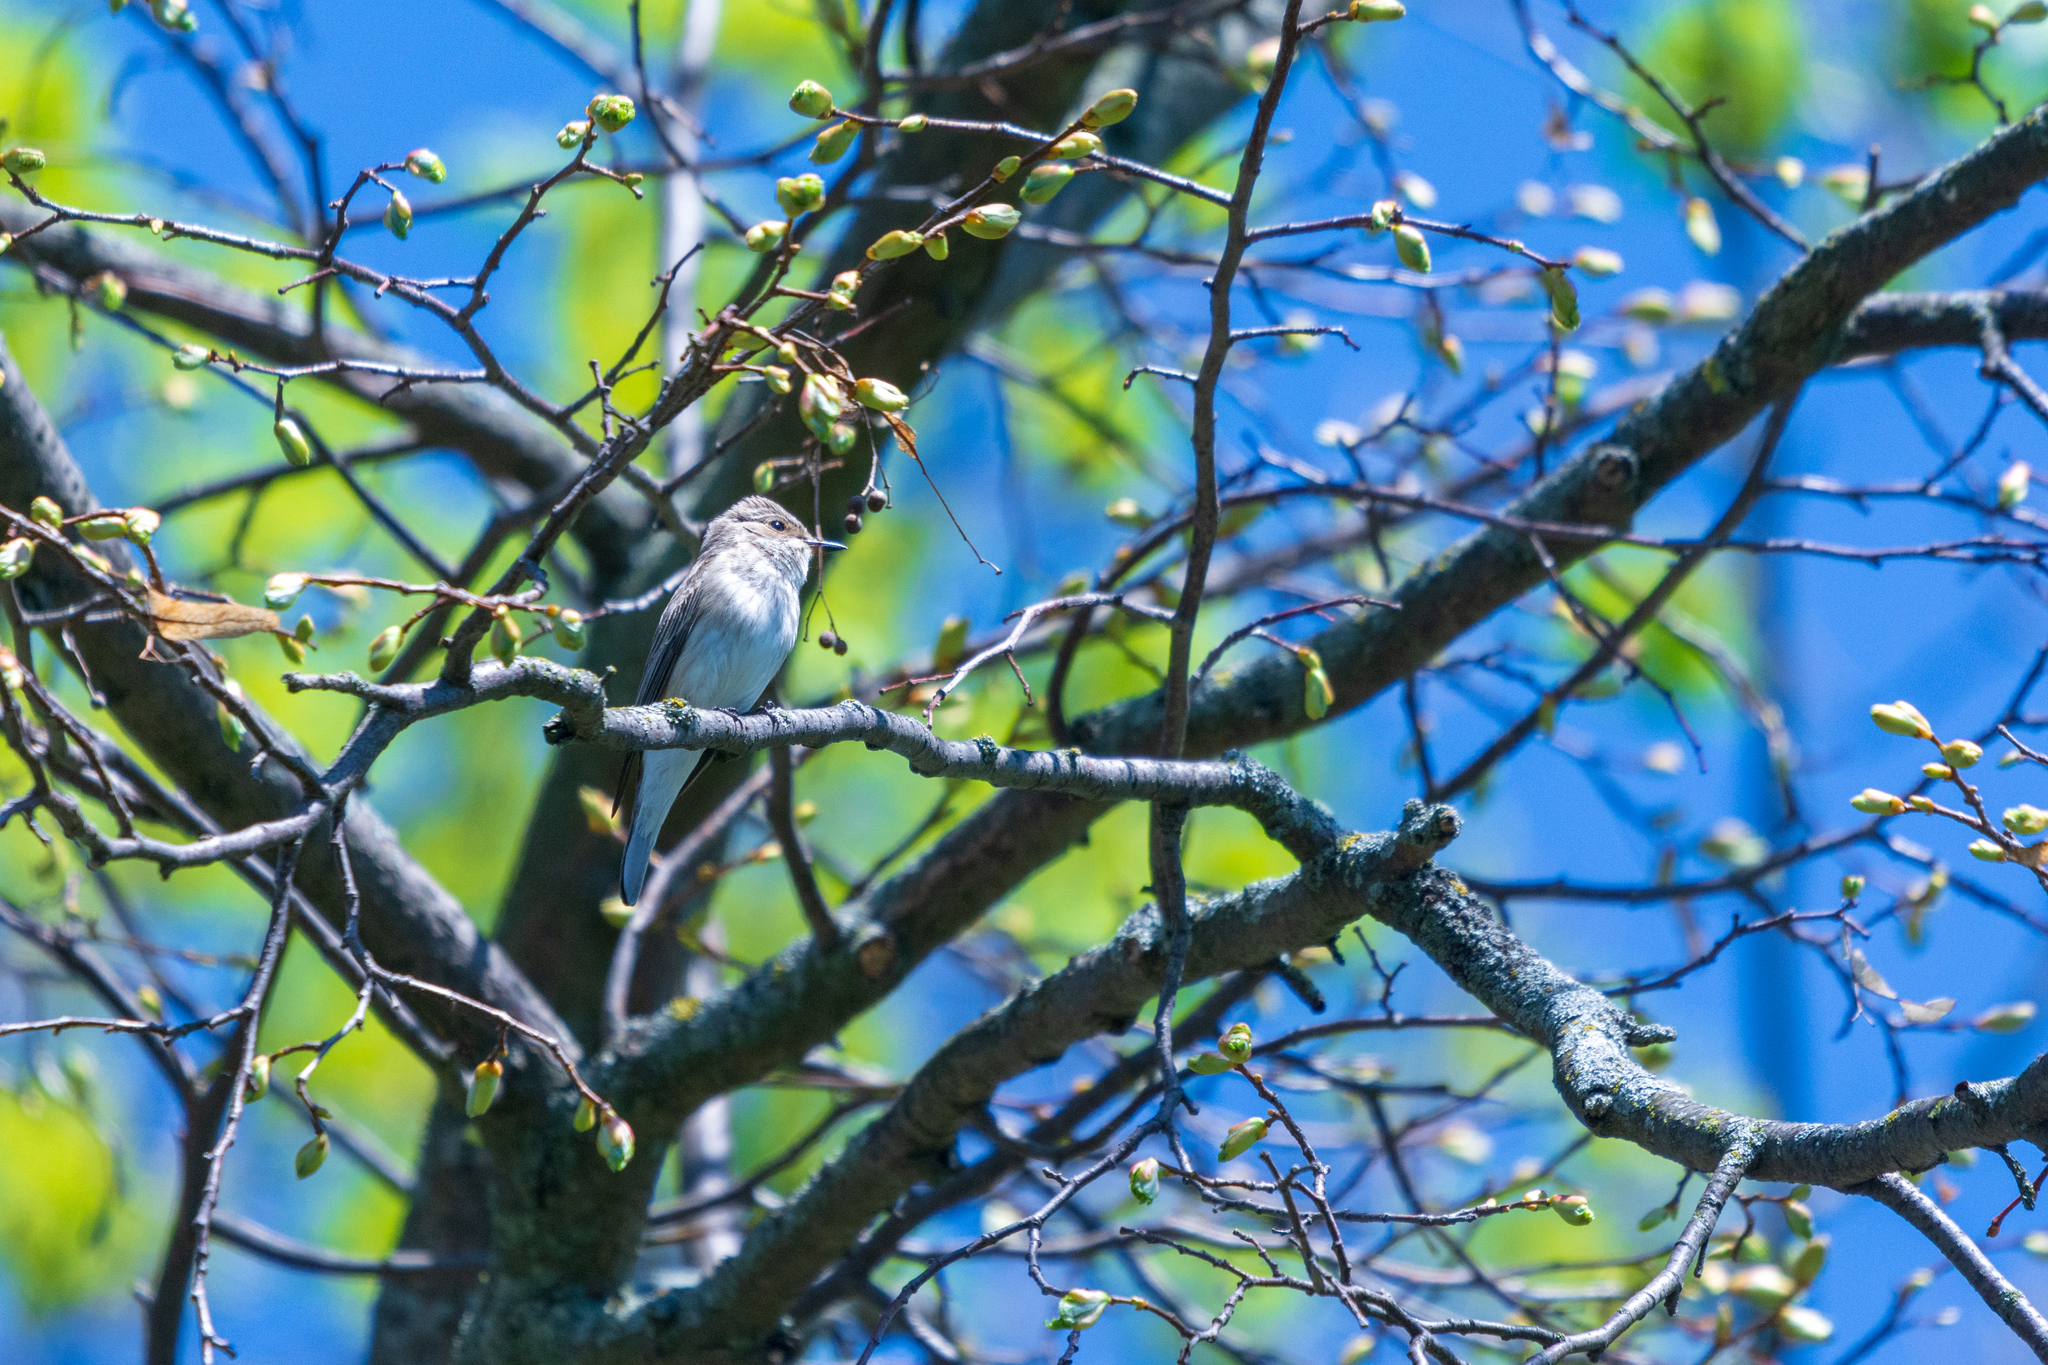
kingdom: Animalia
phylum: Chordata
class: Aves
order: Passeriformes
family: Muscicapidae
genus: Muscicapa
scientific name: Muscicapa striata
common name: Spotted flycatcher
